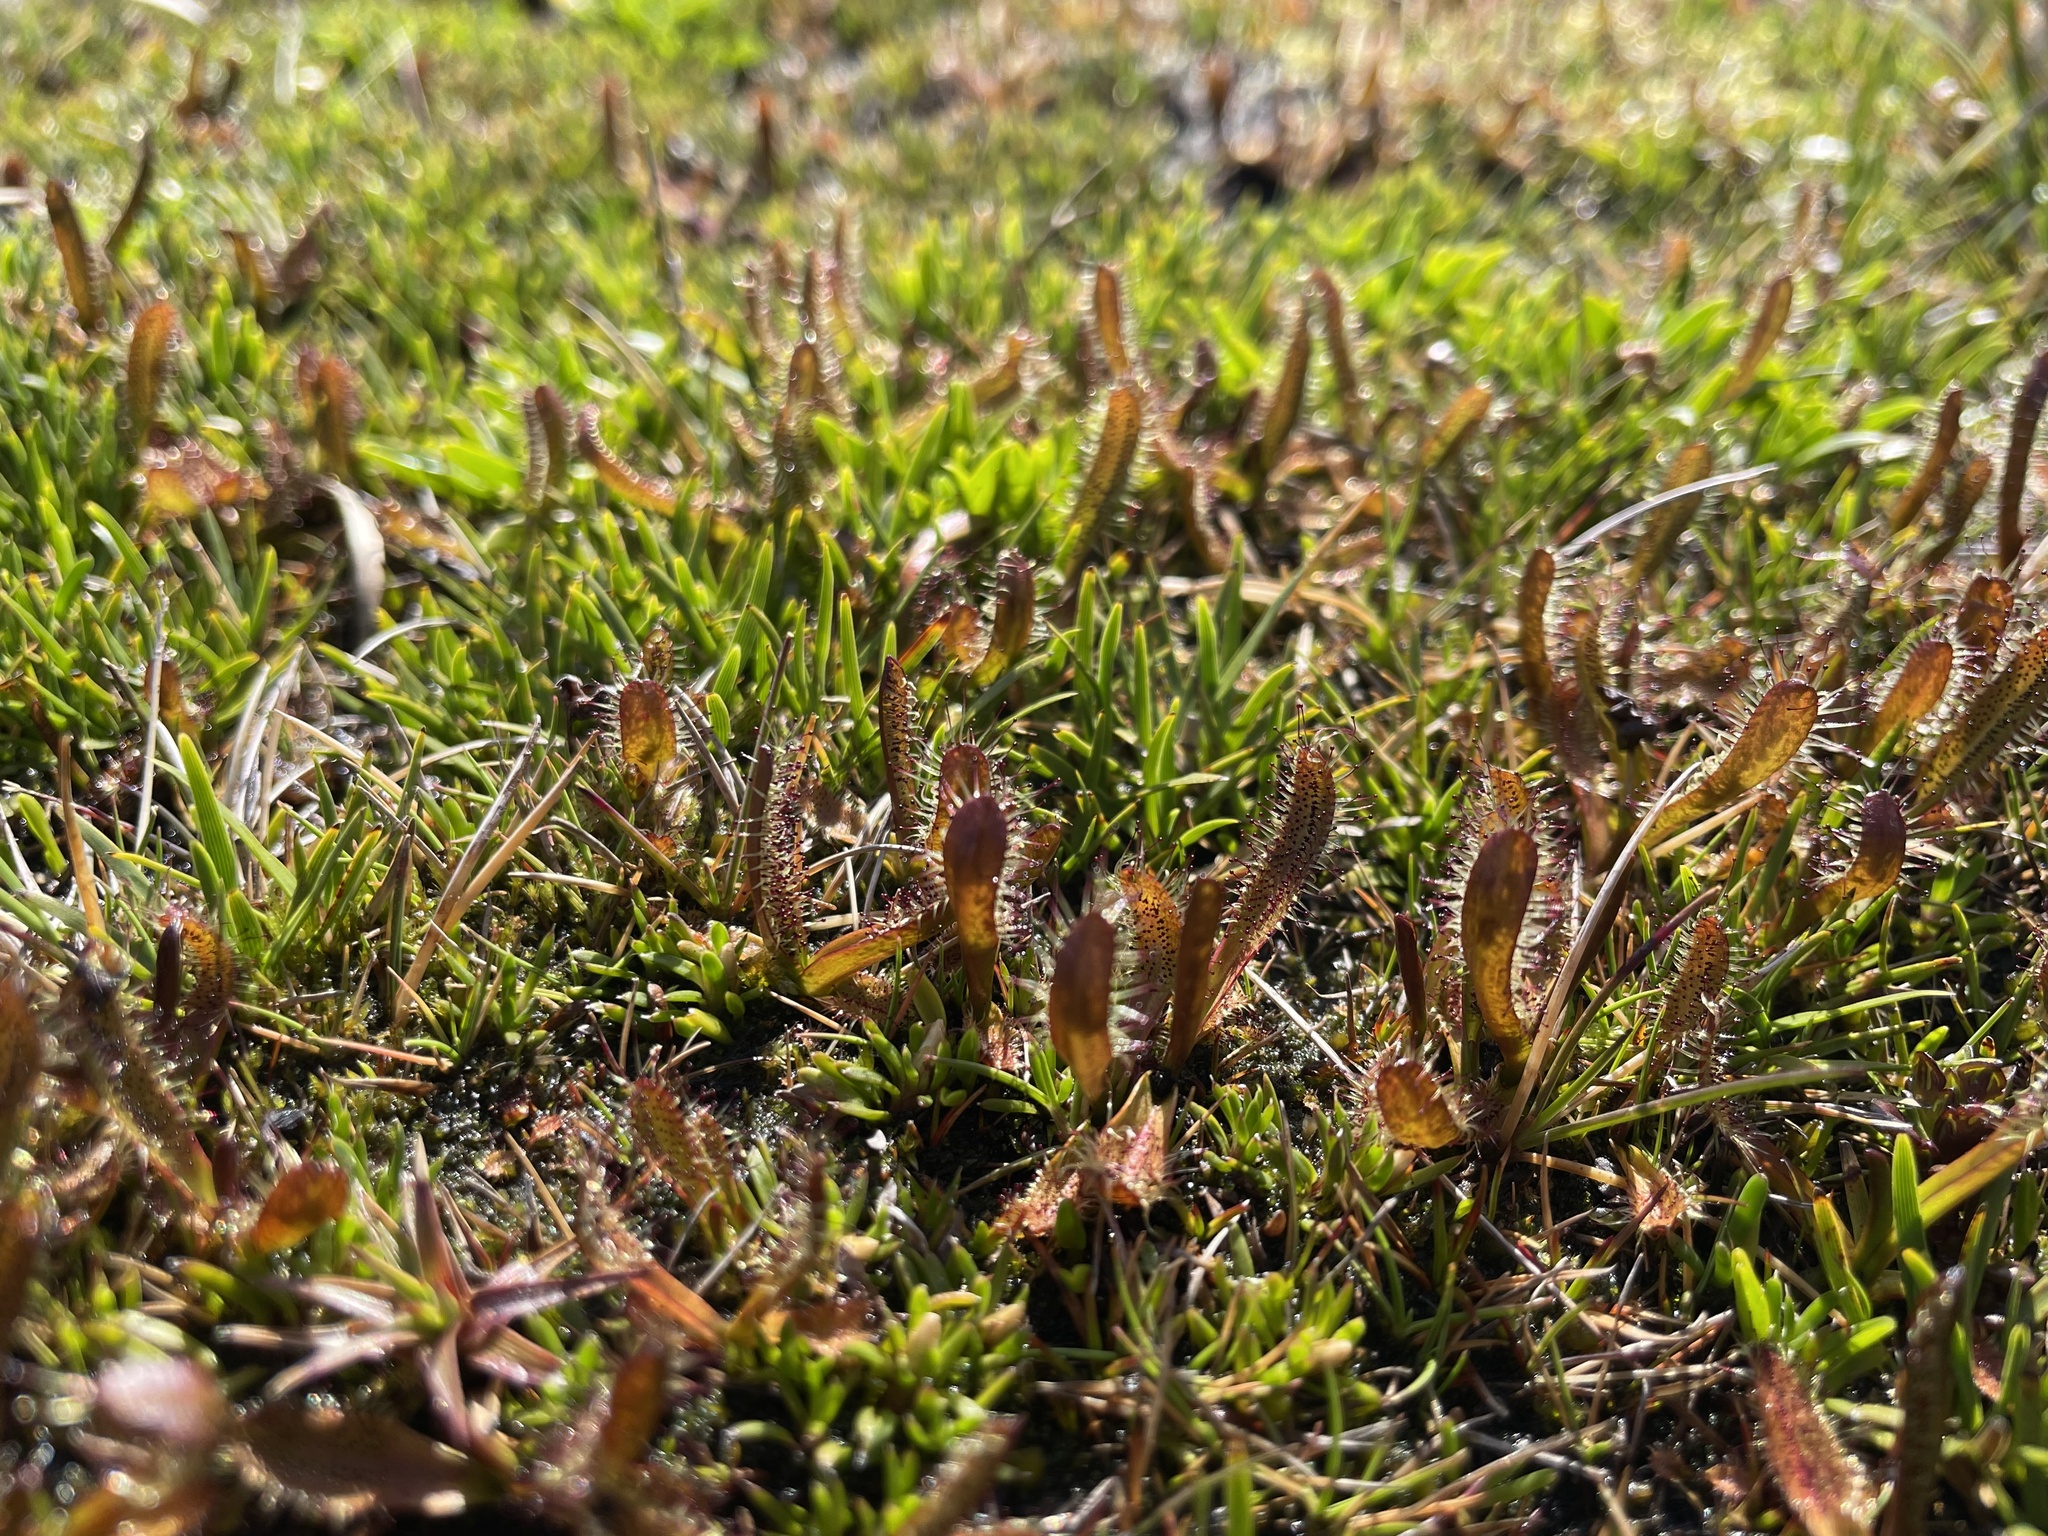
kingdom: Plantae
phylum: Tracheophyta
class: Magnoliopsida
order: Caryophyllales
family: Droseraceae
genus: Drosera
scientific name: Drosera arcturi
